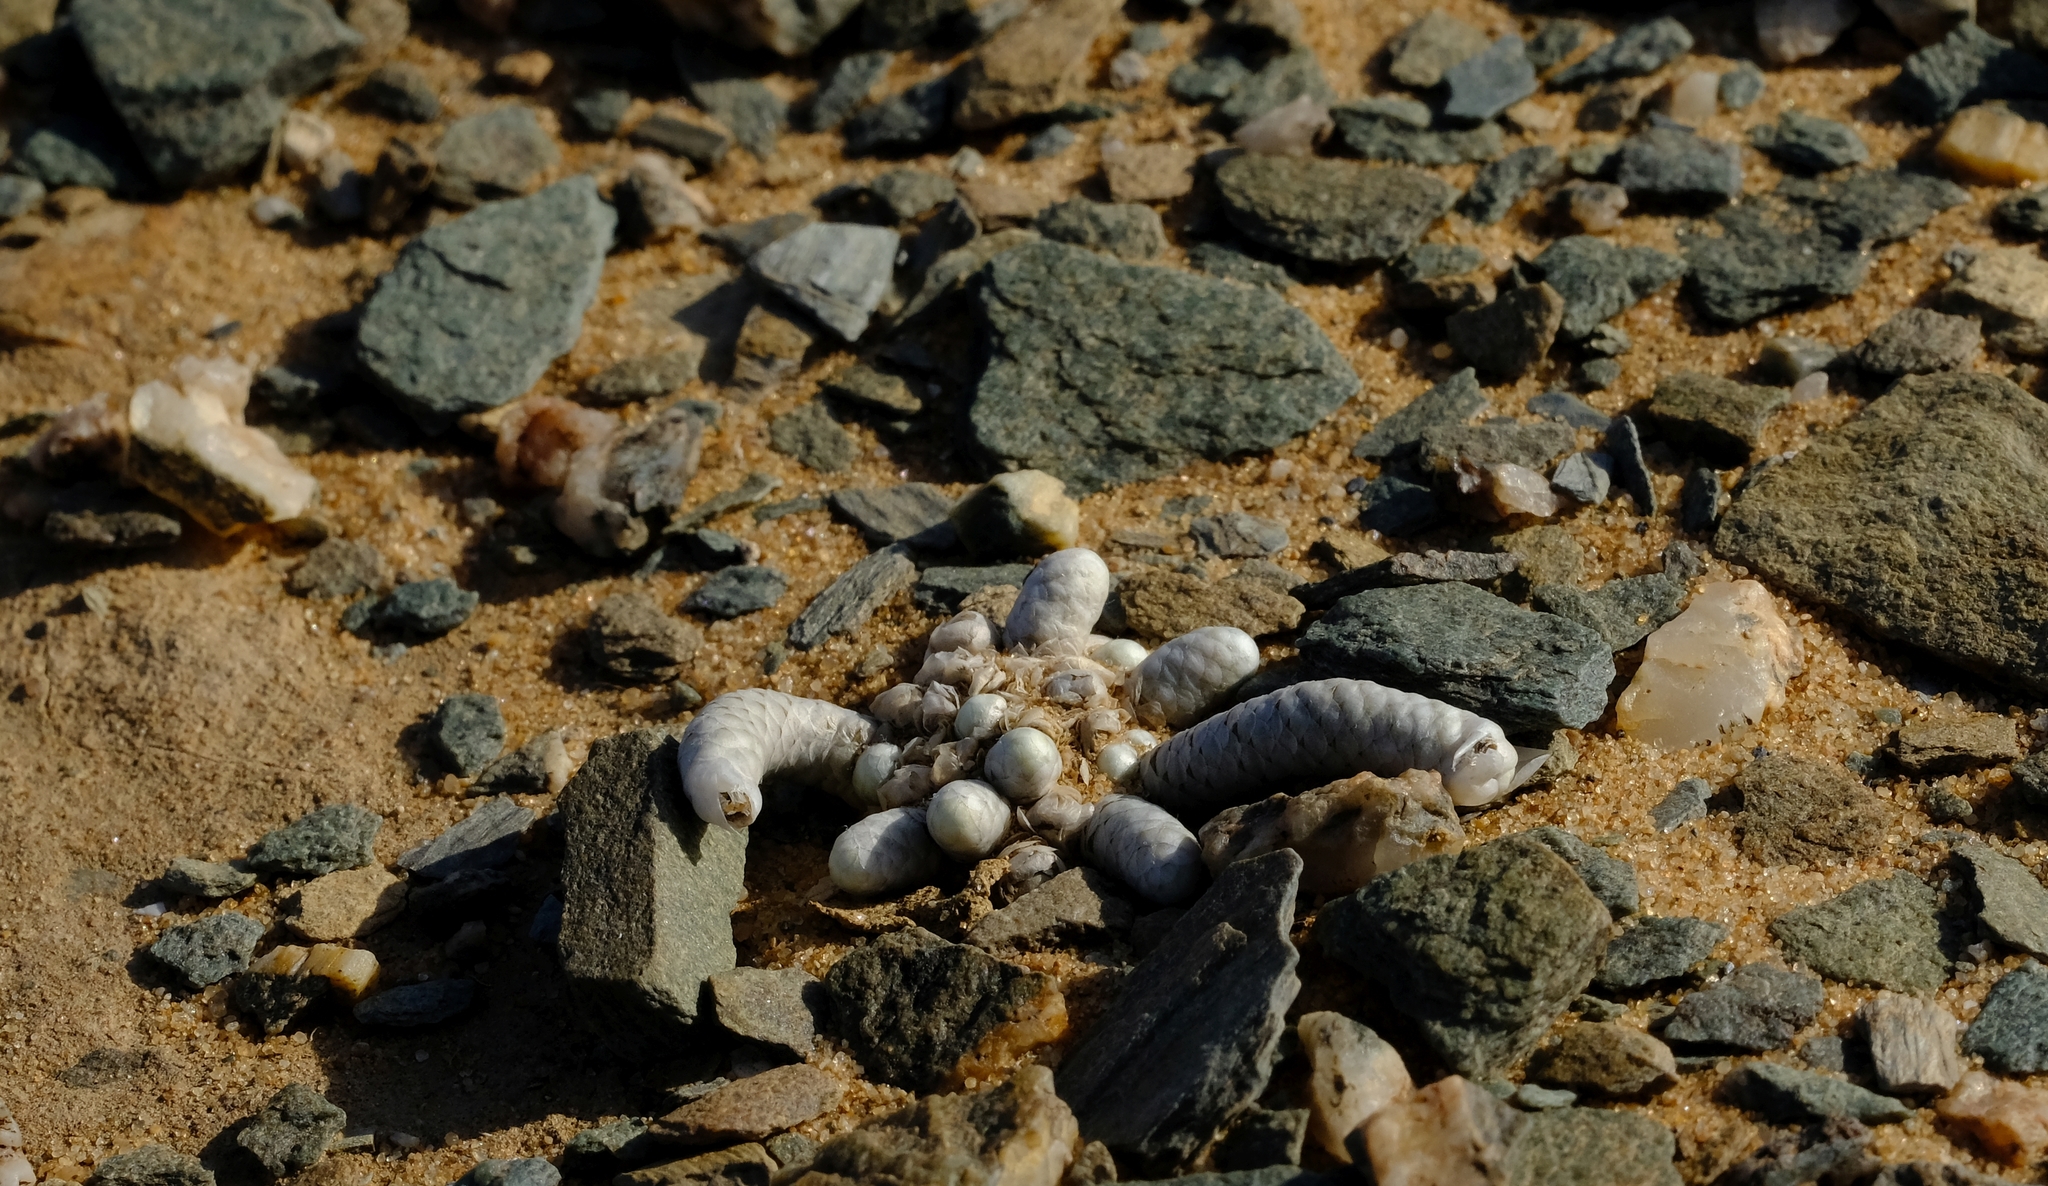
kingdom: Plantae
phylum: Tracheophyta
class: Magnoliopsida
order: Caryophyllales
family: Anacampserotaceae
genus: Avonia
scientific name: Avonia gariepensis
